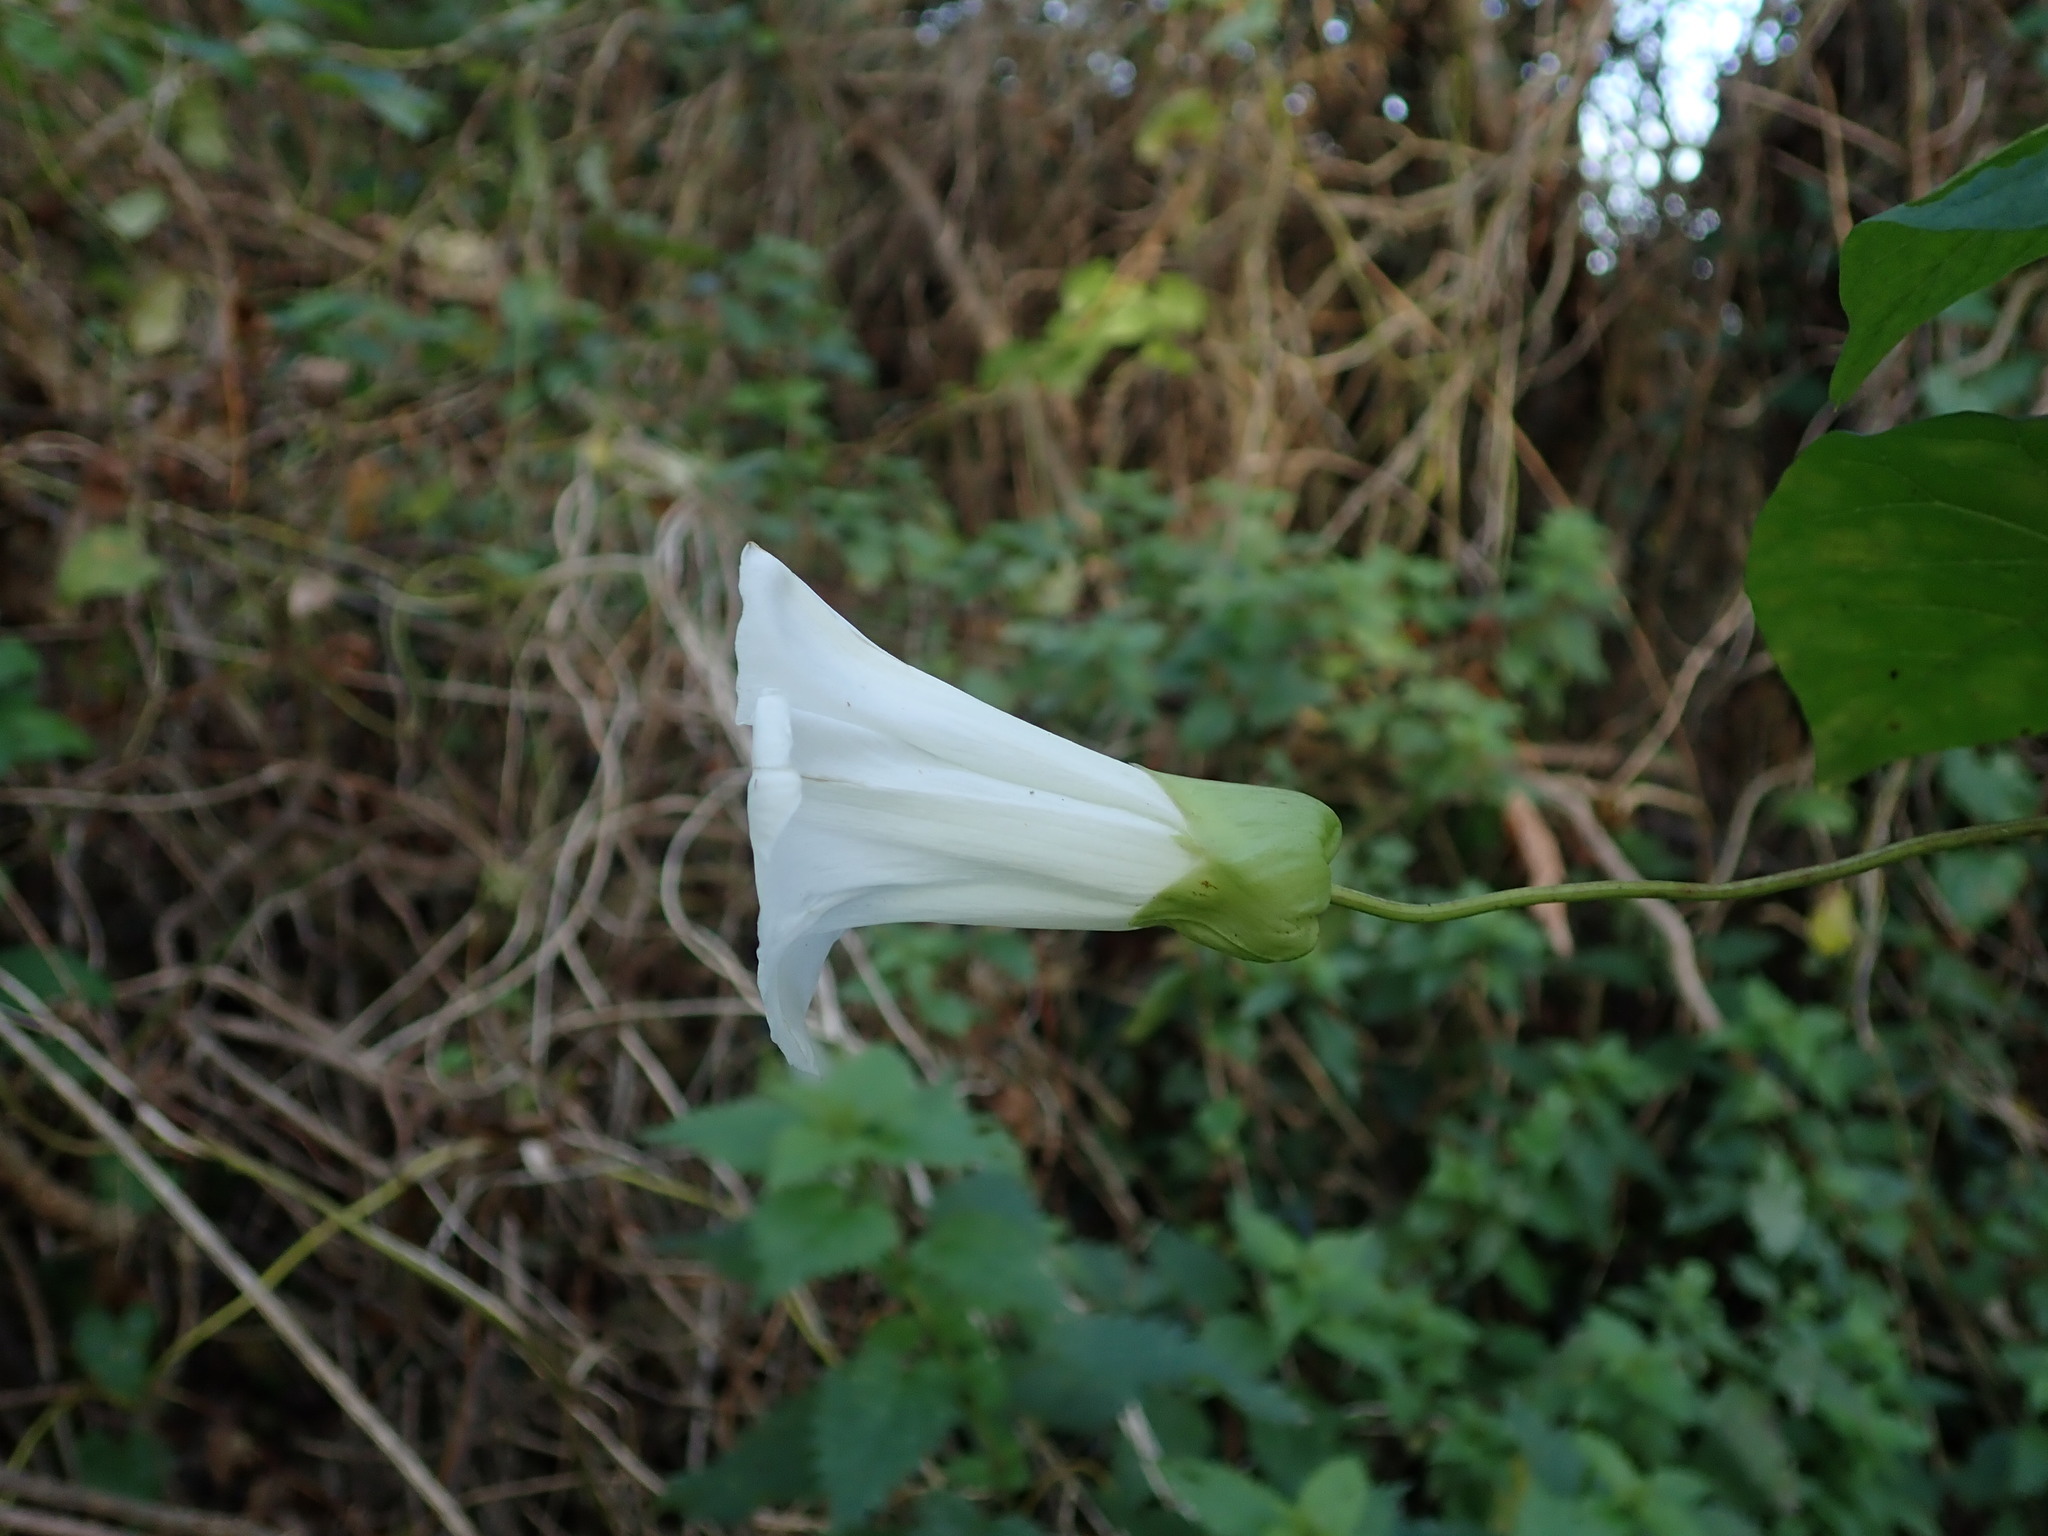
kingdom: Plantae
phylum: Tracheophyta
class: Magnoliopsida
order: Solanales
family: Convolvulaceae
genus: Calystegia
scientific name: Calystegia silvatica
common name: Large bindweed
